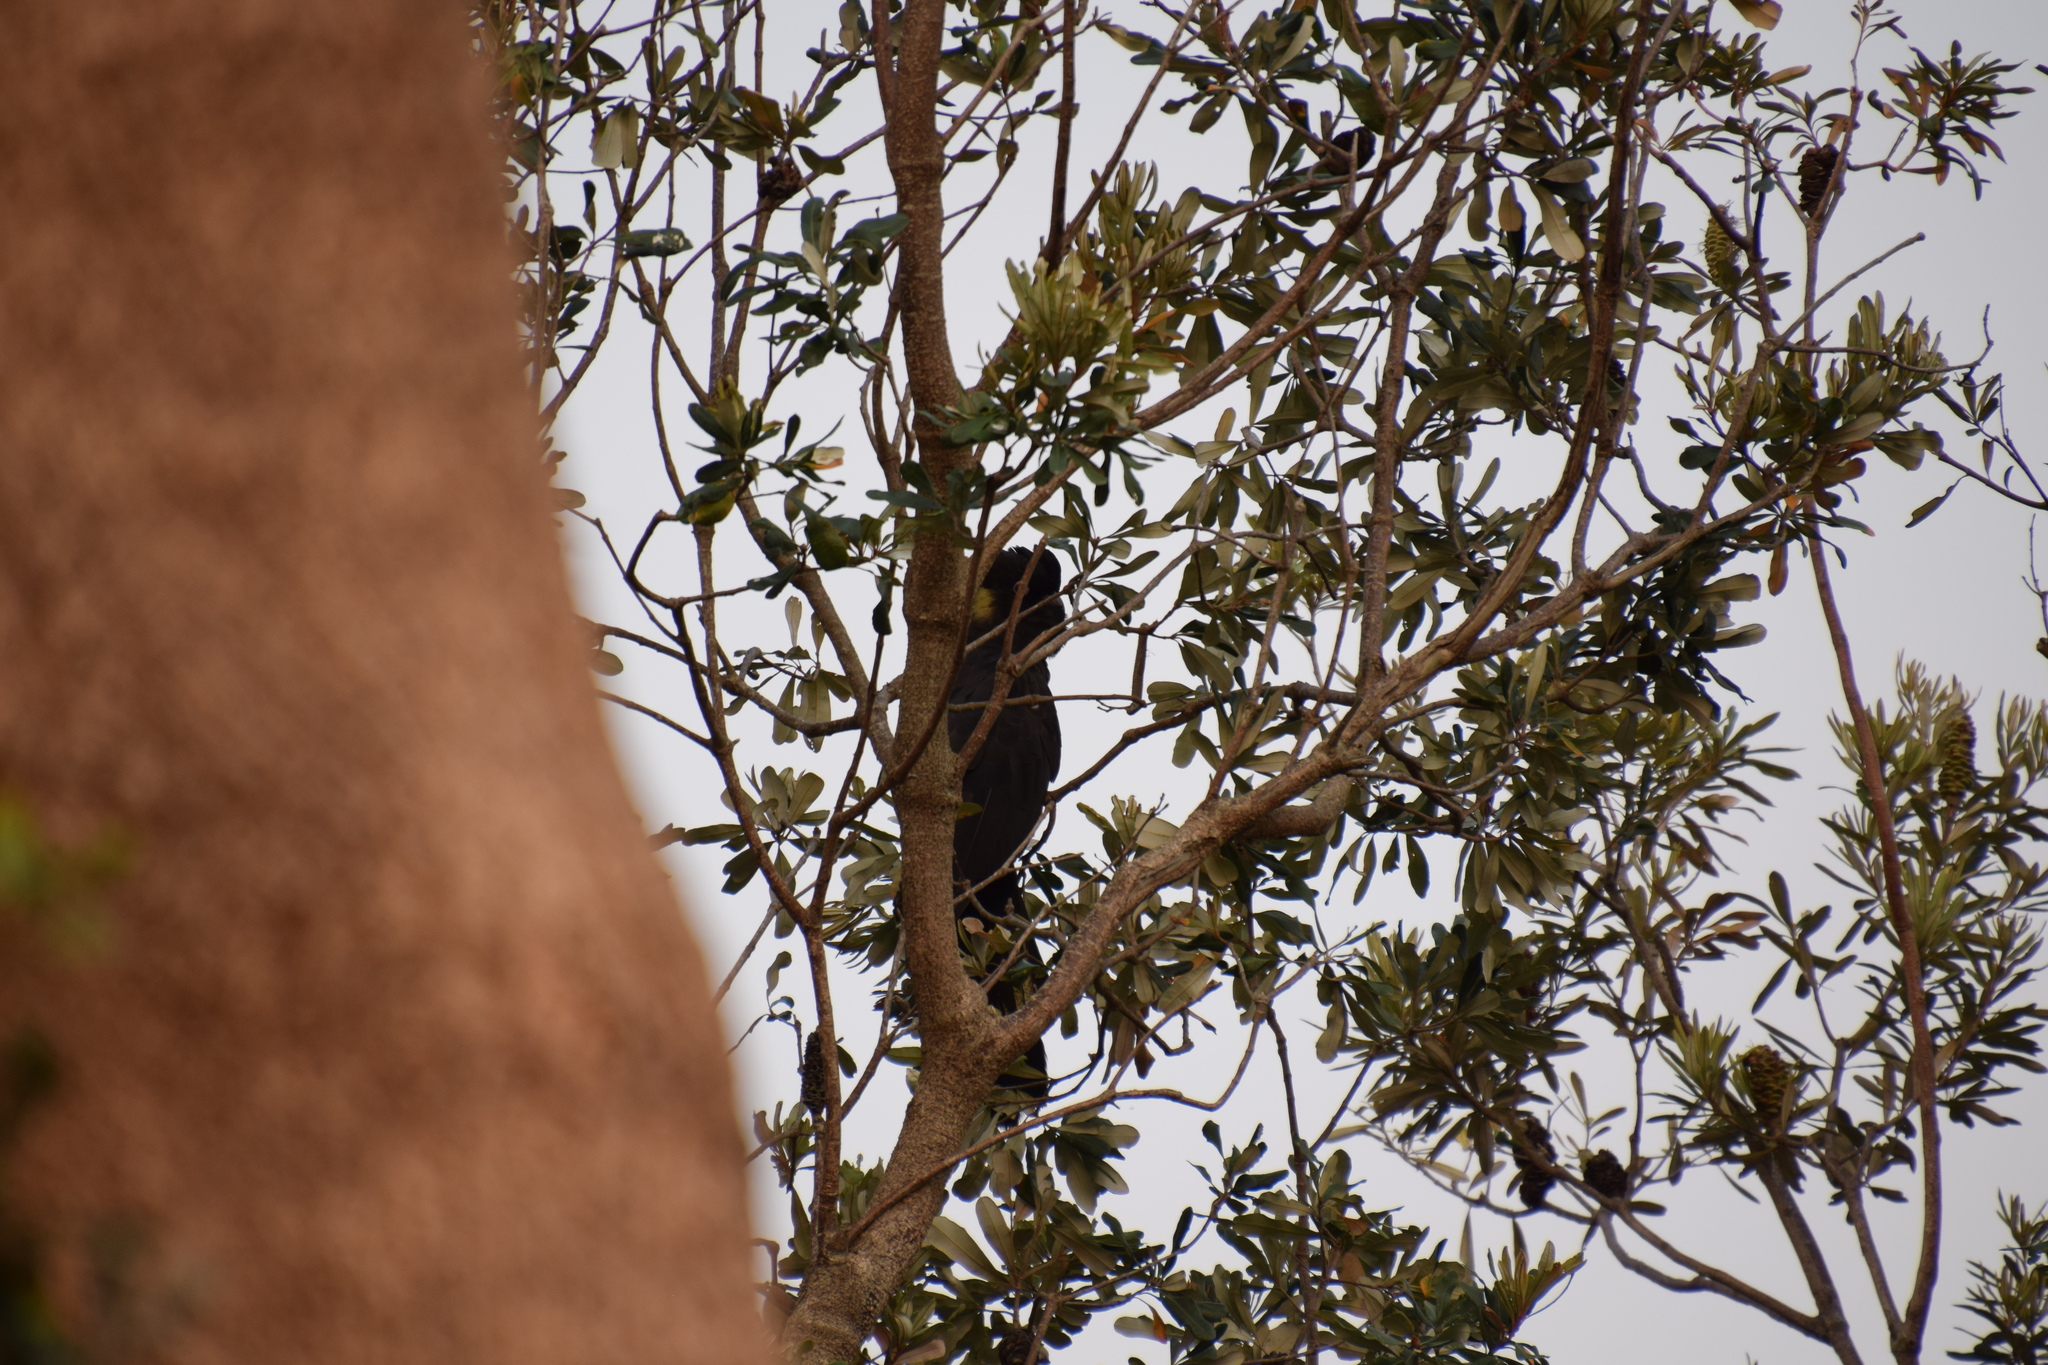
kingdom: Animalia
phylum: Chordata
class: Aves
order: Psittaciformes
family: Cacatuidae
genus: Zanda
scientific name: Zanda funerea
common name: Yellow-tailed black-cockatoo
